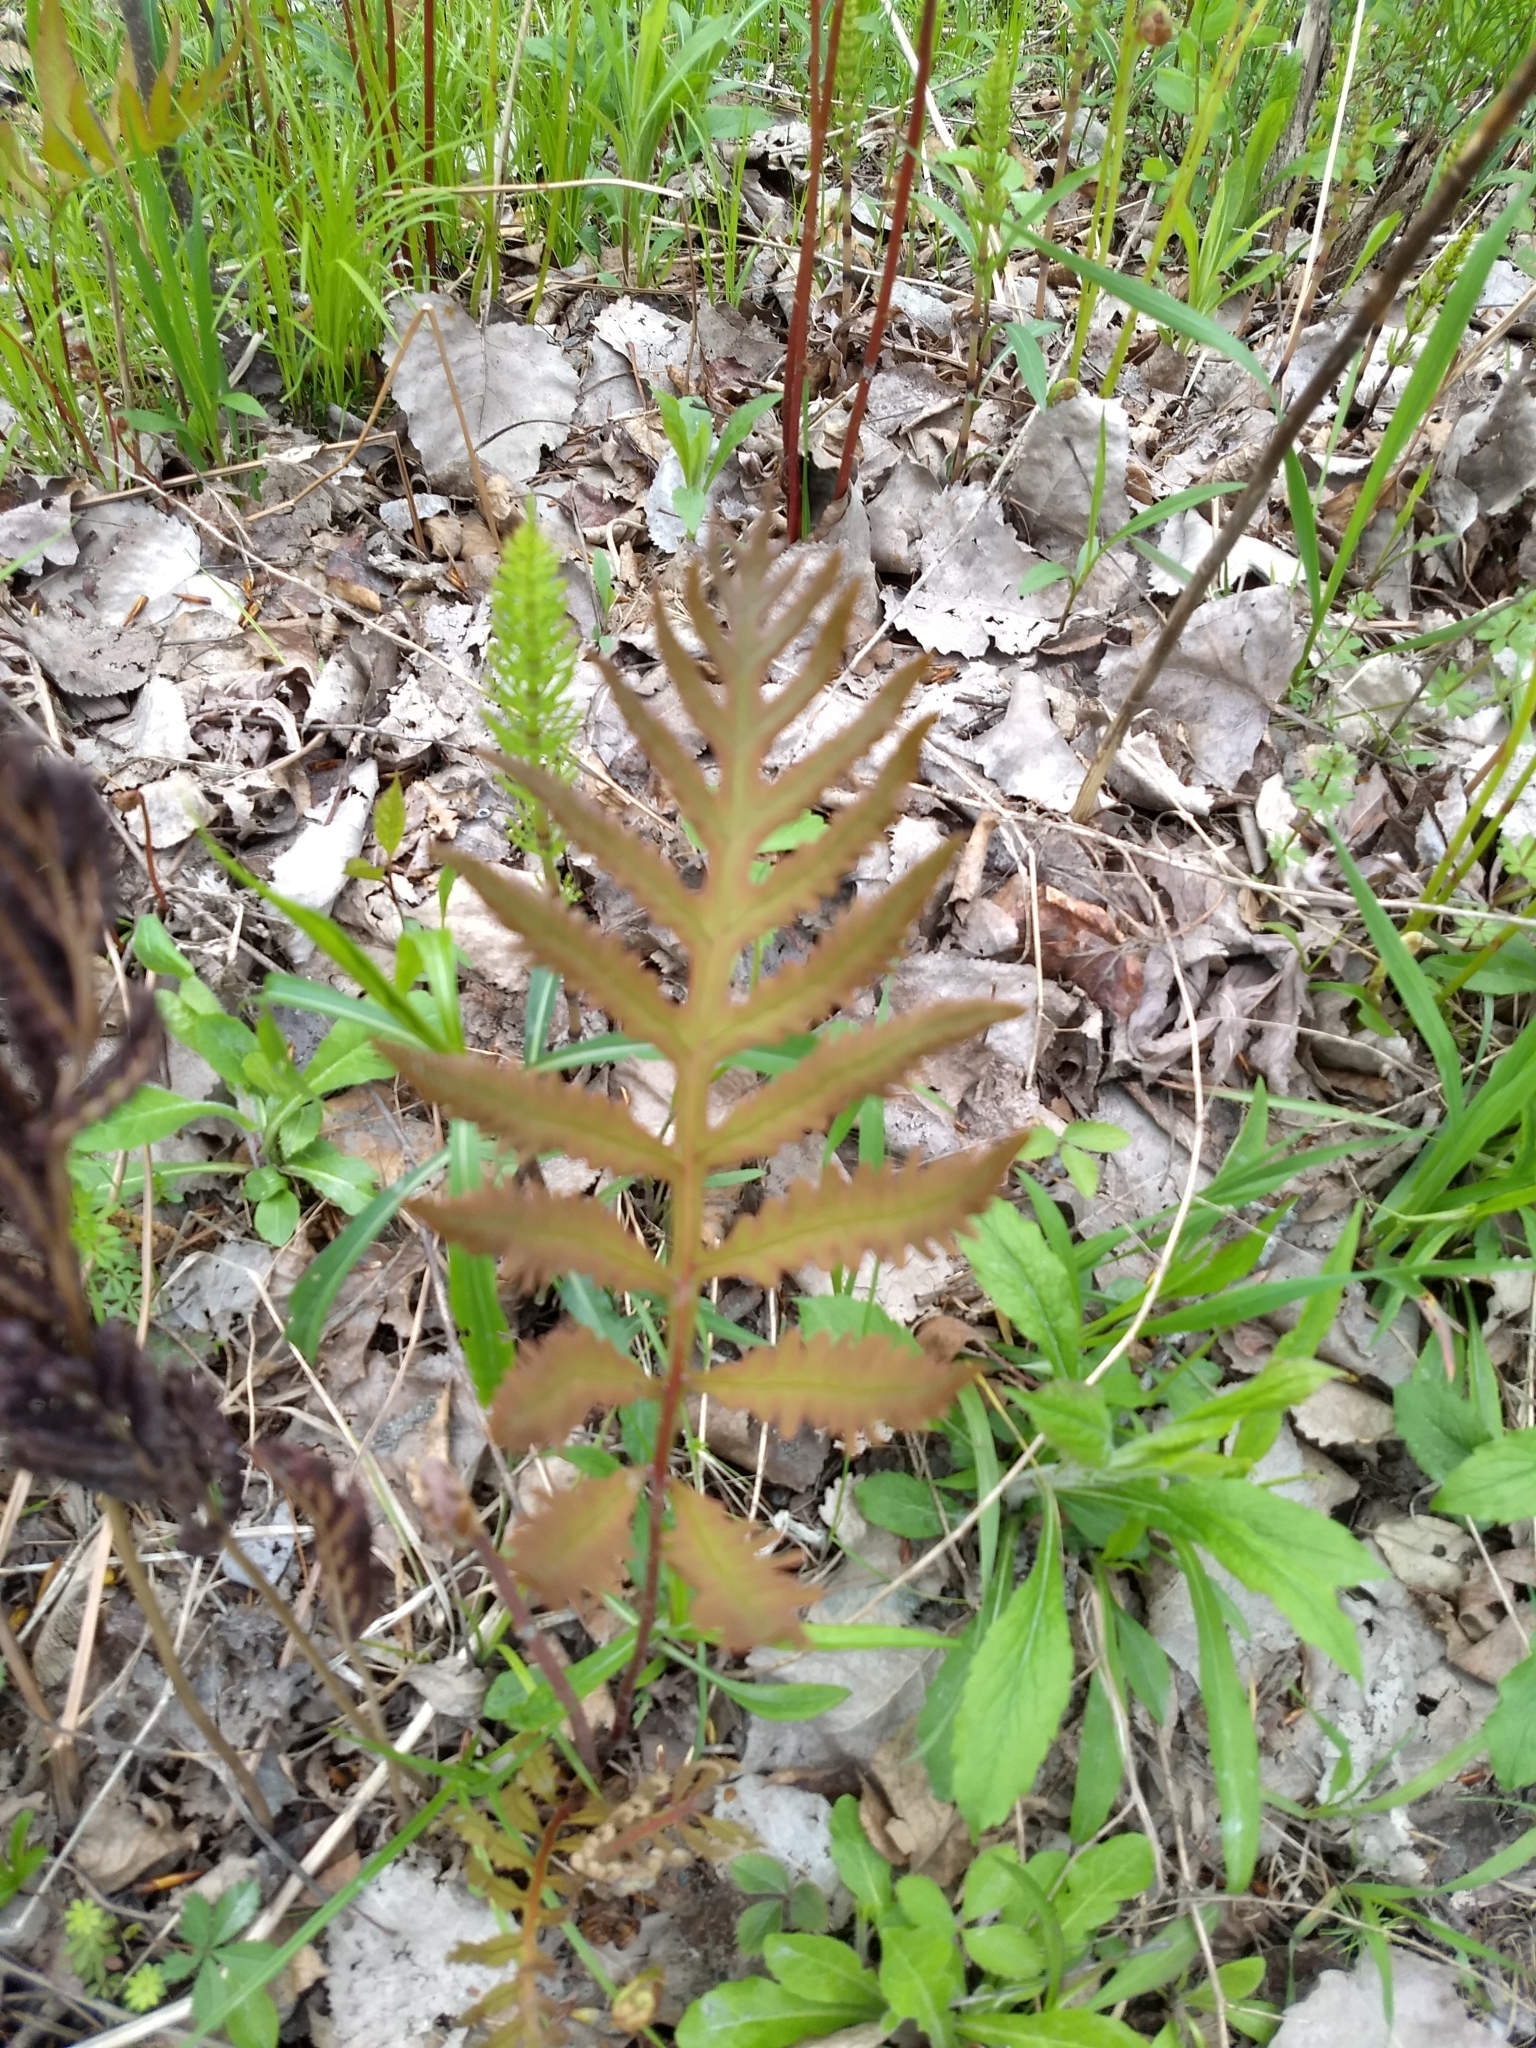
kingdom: Plantae
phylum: Tracheophyta
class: Polypodiopsida
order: Polypodiales
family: Onocleaceae
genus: Onoclea
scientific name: Onoclea sensibilis
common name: Sensitive fern
